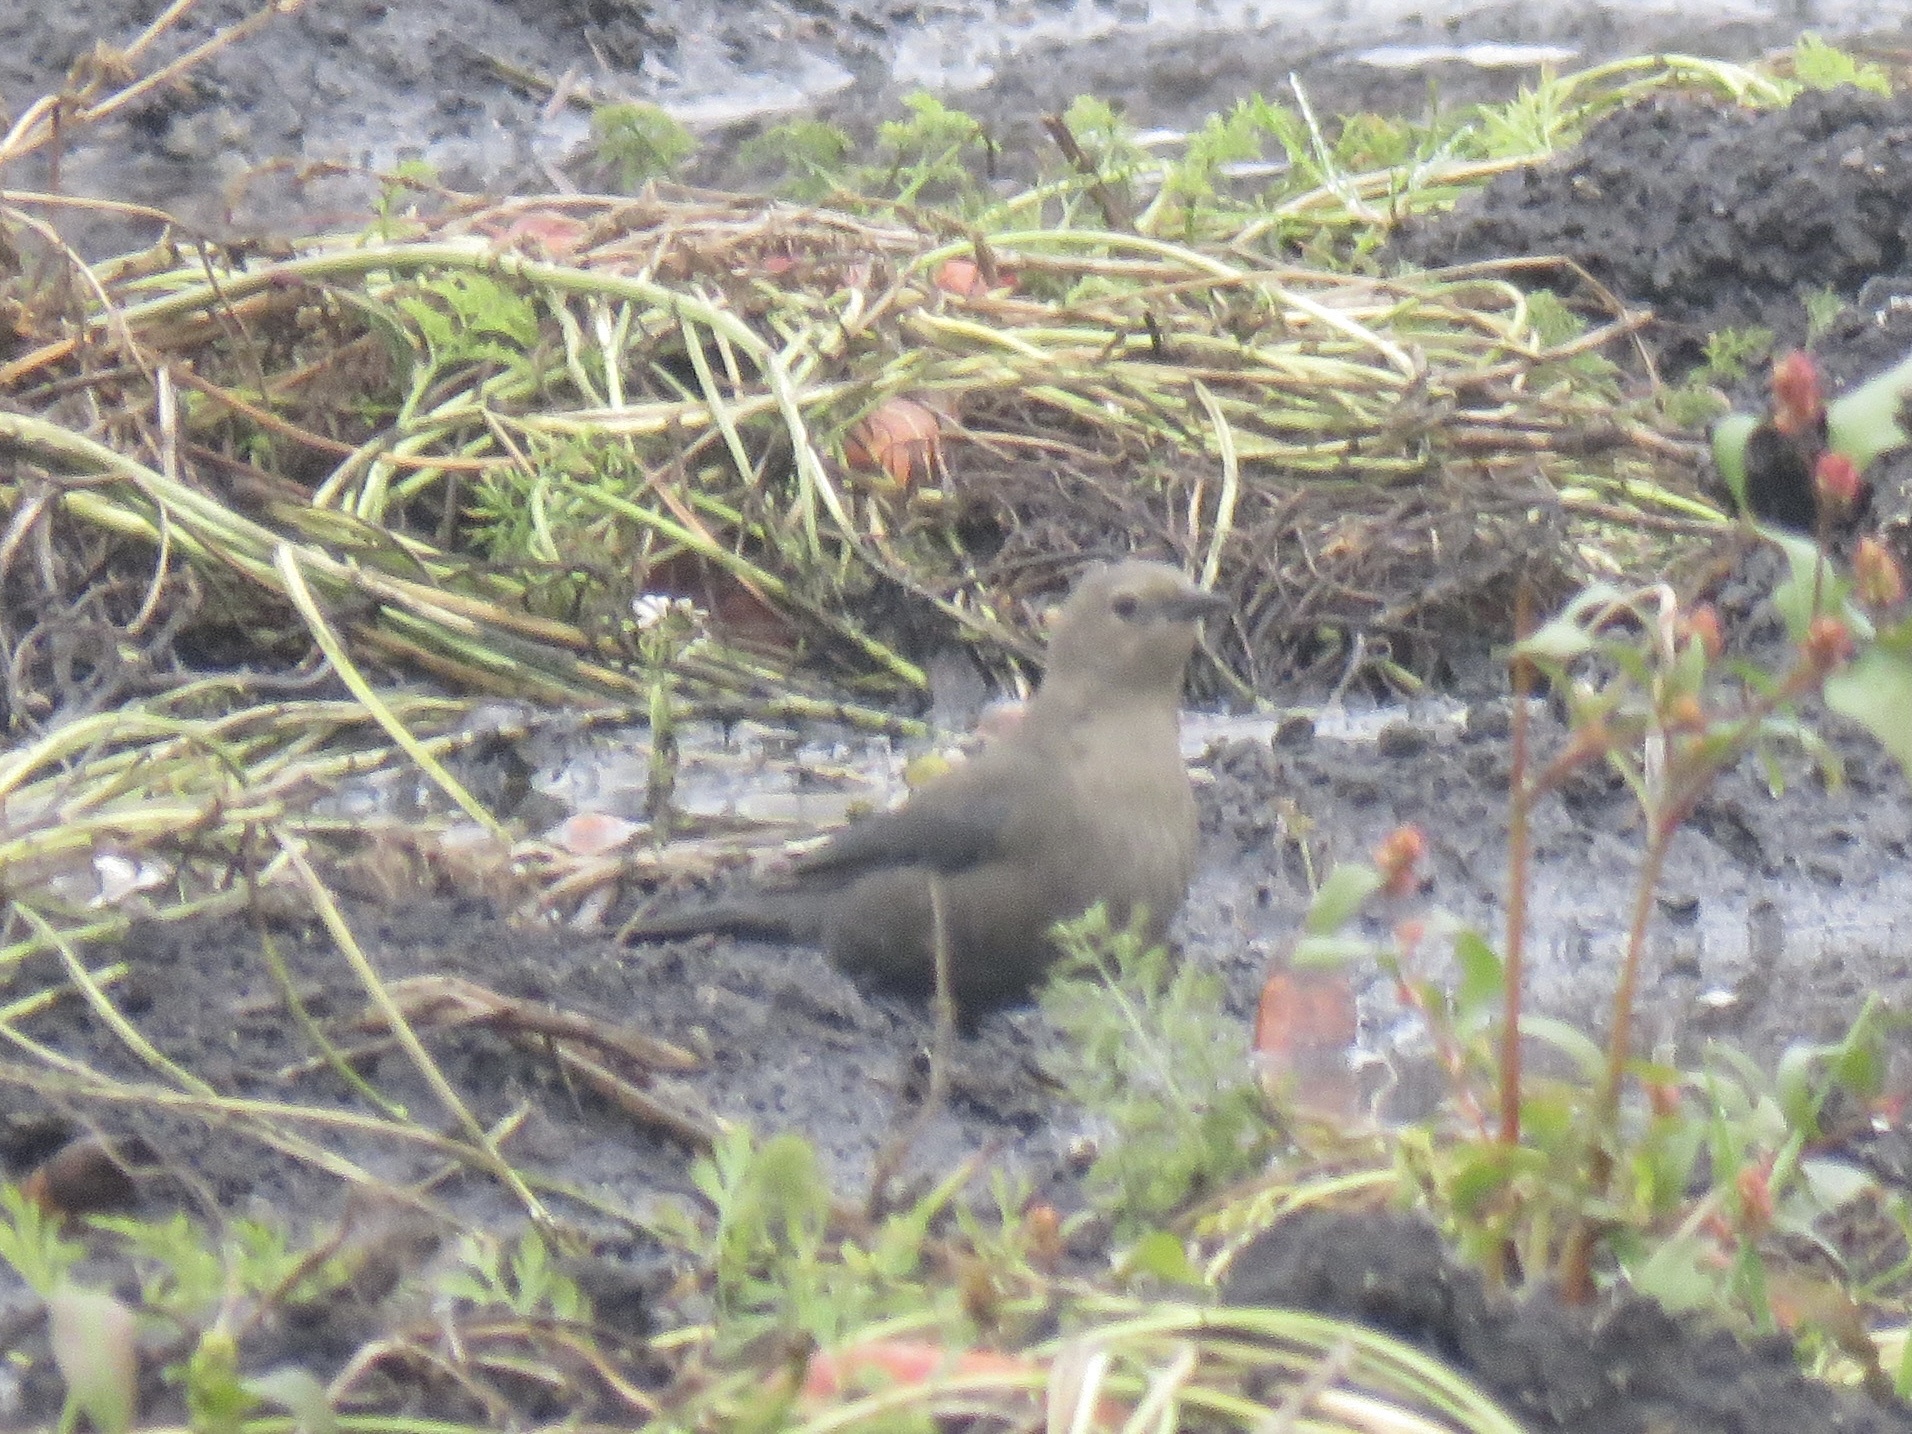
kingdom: Animalia
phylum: Chordata
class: Aves
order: Passeriformes
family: Icteridae
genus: Euphagus
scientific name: Euphagus cyanocephalus
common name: Brewer's blackbird
